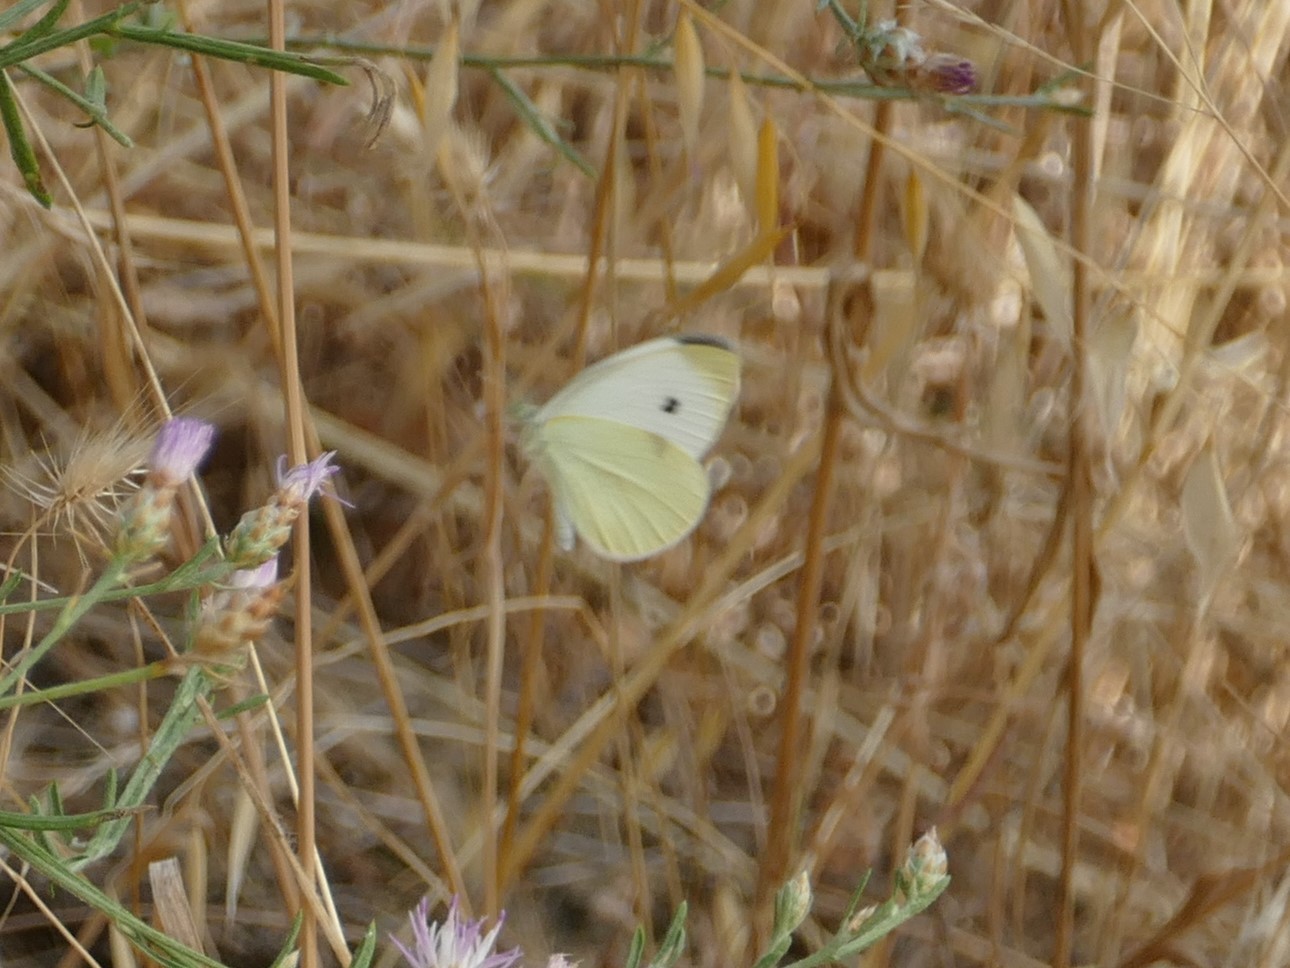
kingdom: Animalia
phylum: Arthropoda
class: Insecta
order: Lepidoptera
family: Pieridae
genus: Pieris
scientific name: Pieris rapae
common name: Small white
